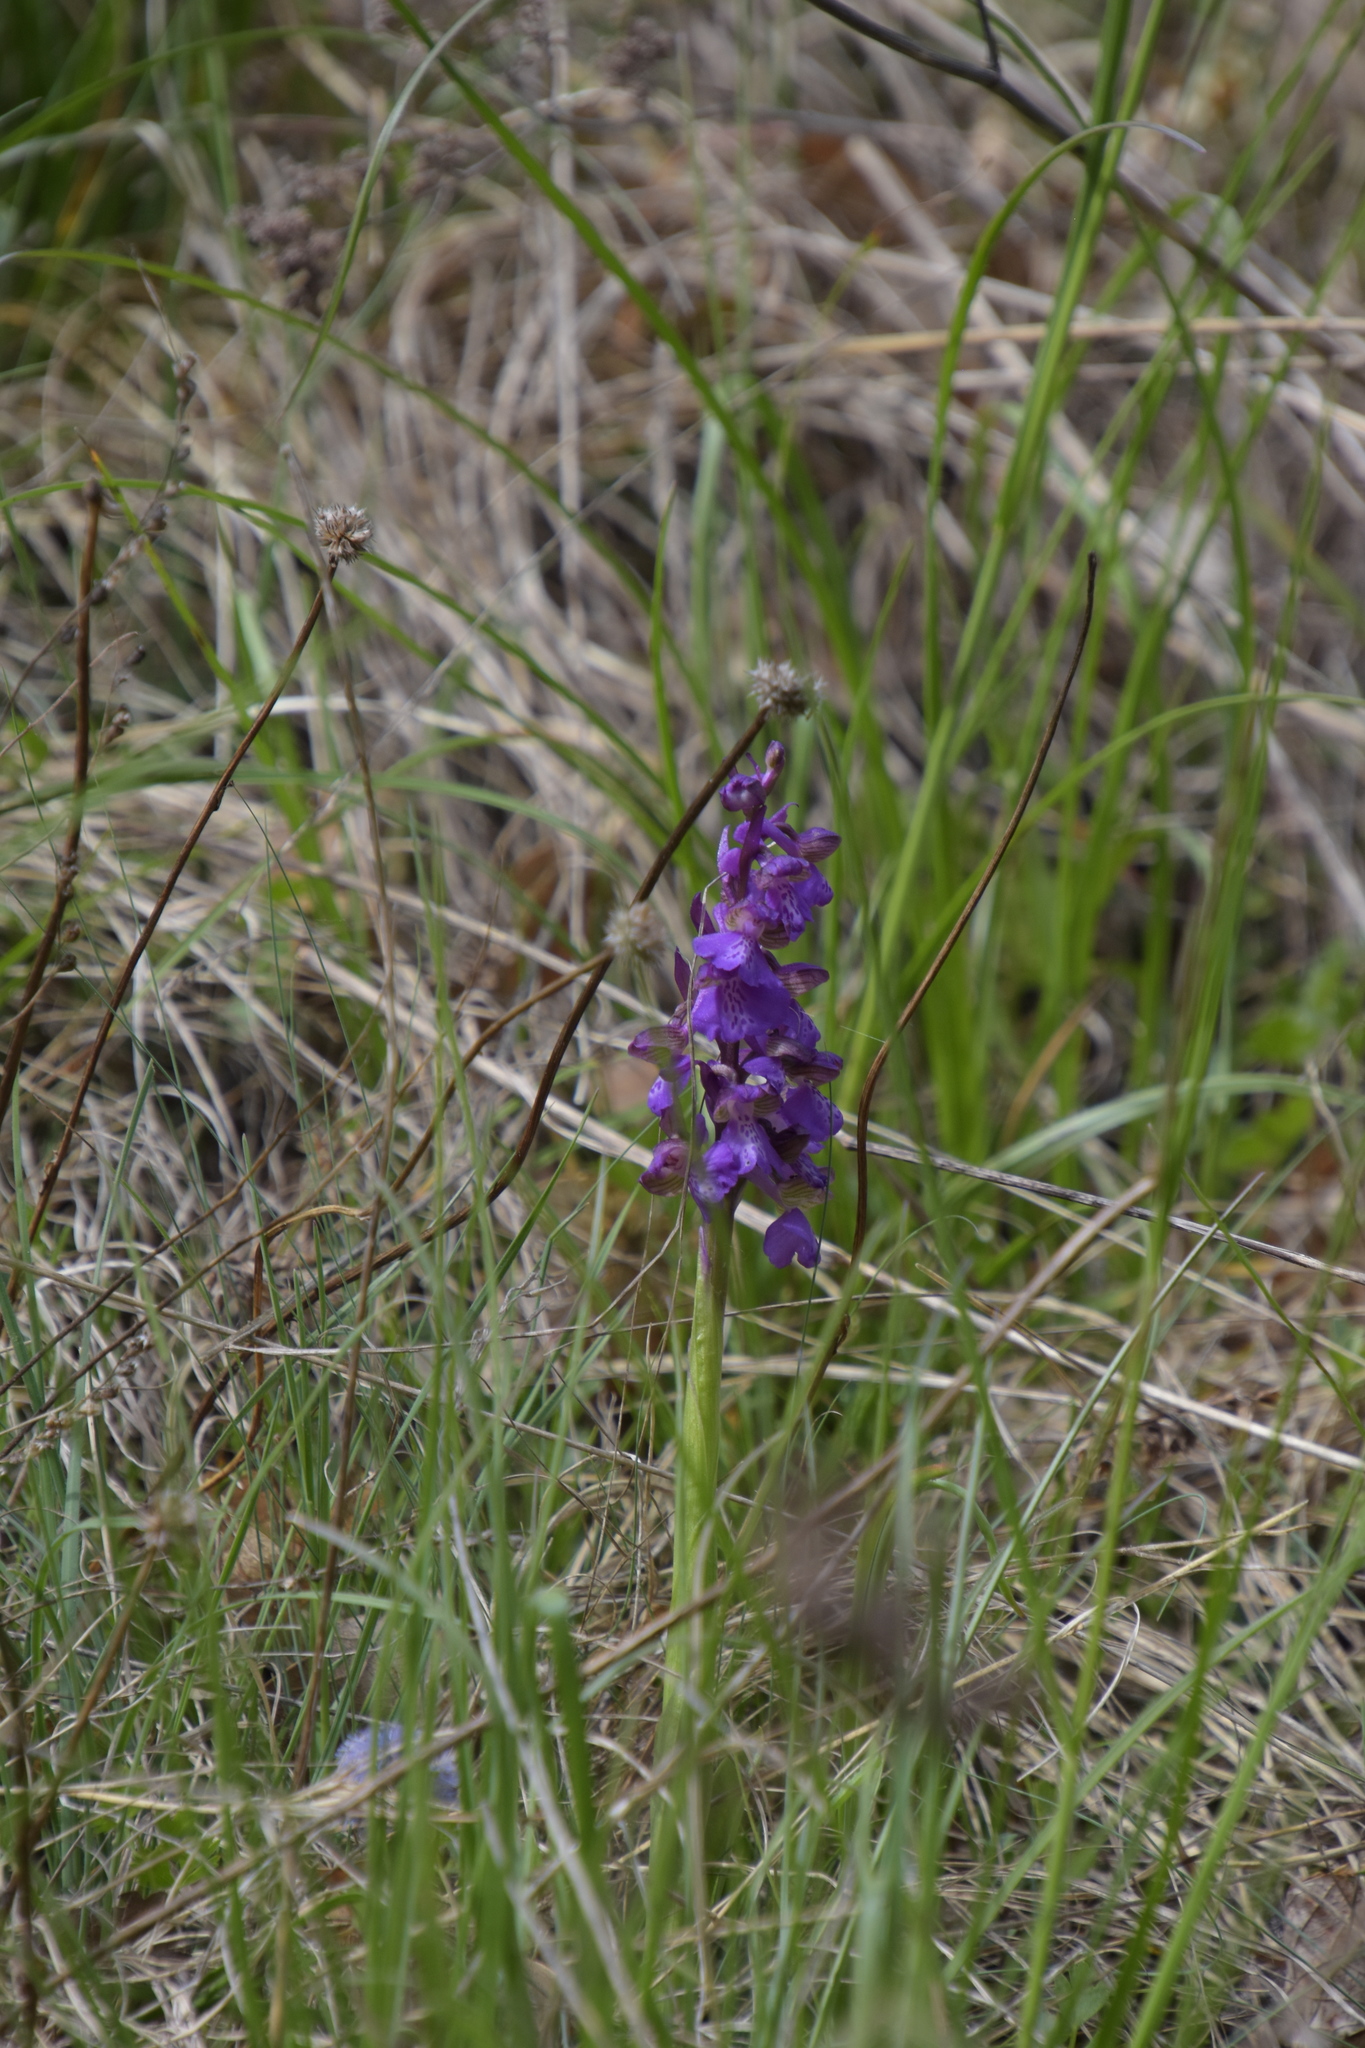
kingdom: Plantae
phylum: Tracheophyta
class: Liliopsida
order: Asparagales
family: Orchidaceae
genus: Anacamptis
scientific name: Anacamptis morio
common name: Green-winged orchid
